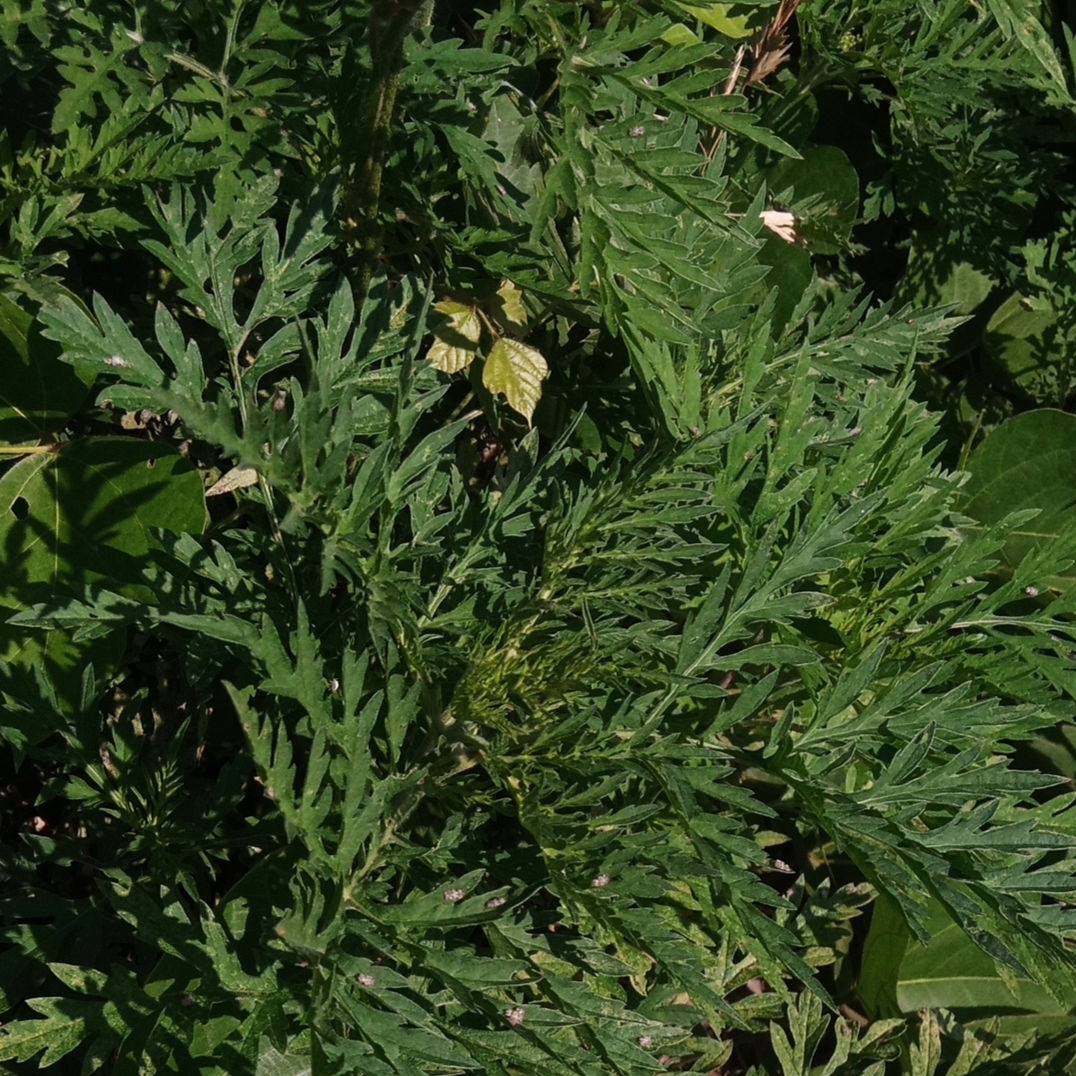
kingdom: Plantae
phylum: Tracheophyta
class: Magnoliopsida
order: Asterales
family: Asteraceae
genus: Ambrosia
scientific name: Ambrosia artemisiifolia
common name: Annual ragweed
